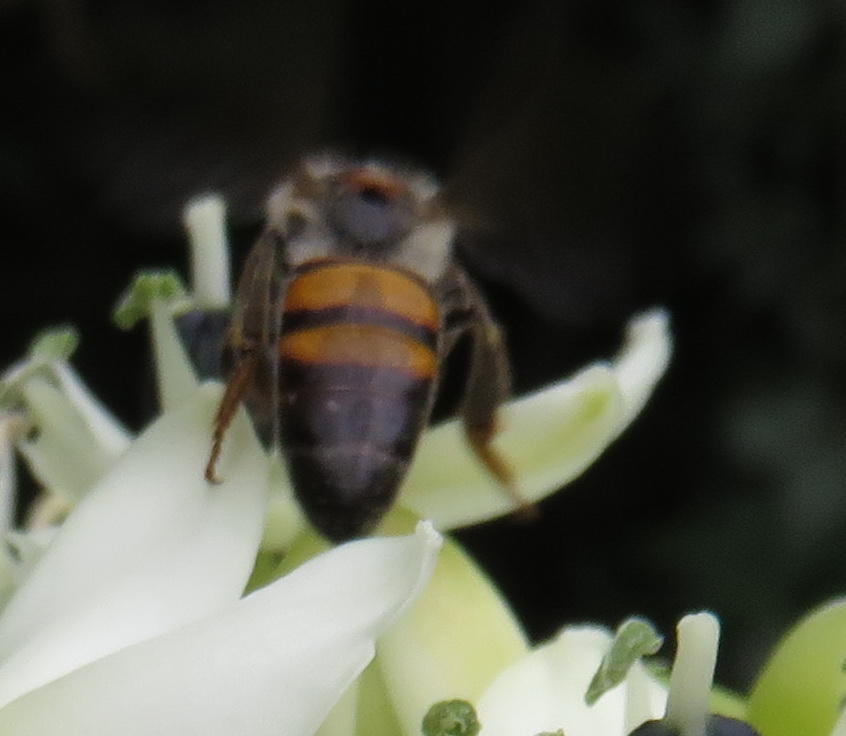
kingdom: Animalia
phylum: Arthropoda
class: Insecta
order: Hymenoptera
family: Apidae
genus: Apis
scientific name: Apis mellifera
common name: Honey bee
